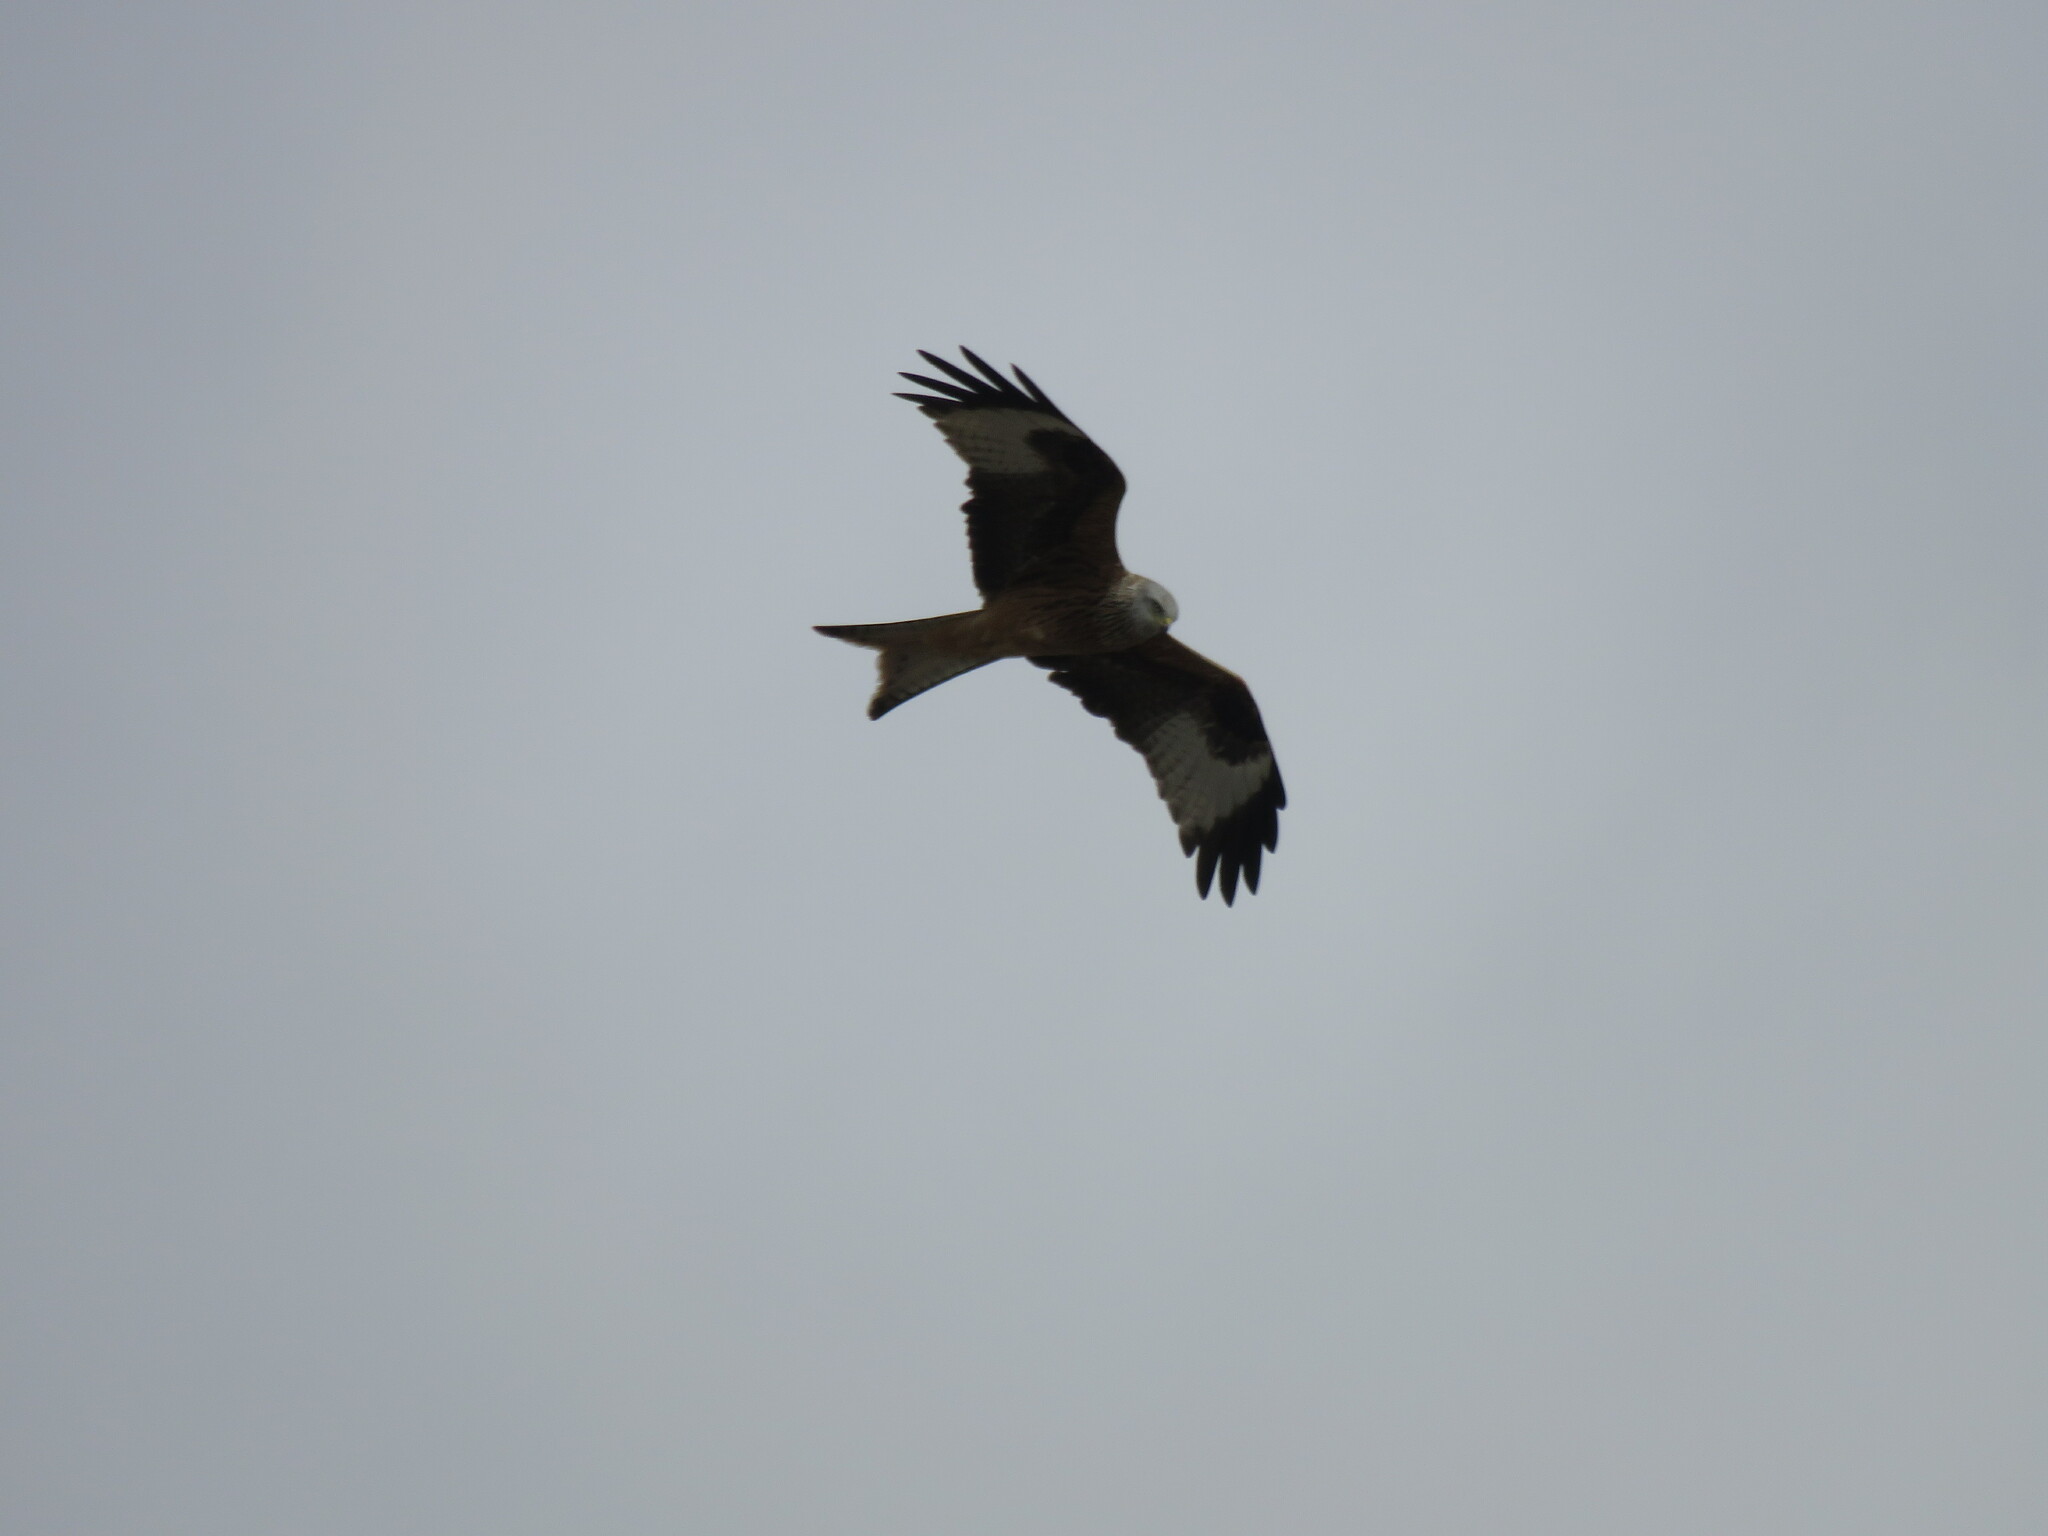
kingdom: Animalia
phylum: Chordata
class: Aves
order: Accipitriformes
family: Accipitridae
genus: Milvus
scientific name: Milvus milvus
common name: Red kite
